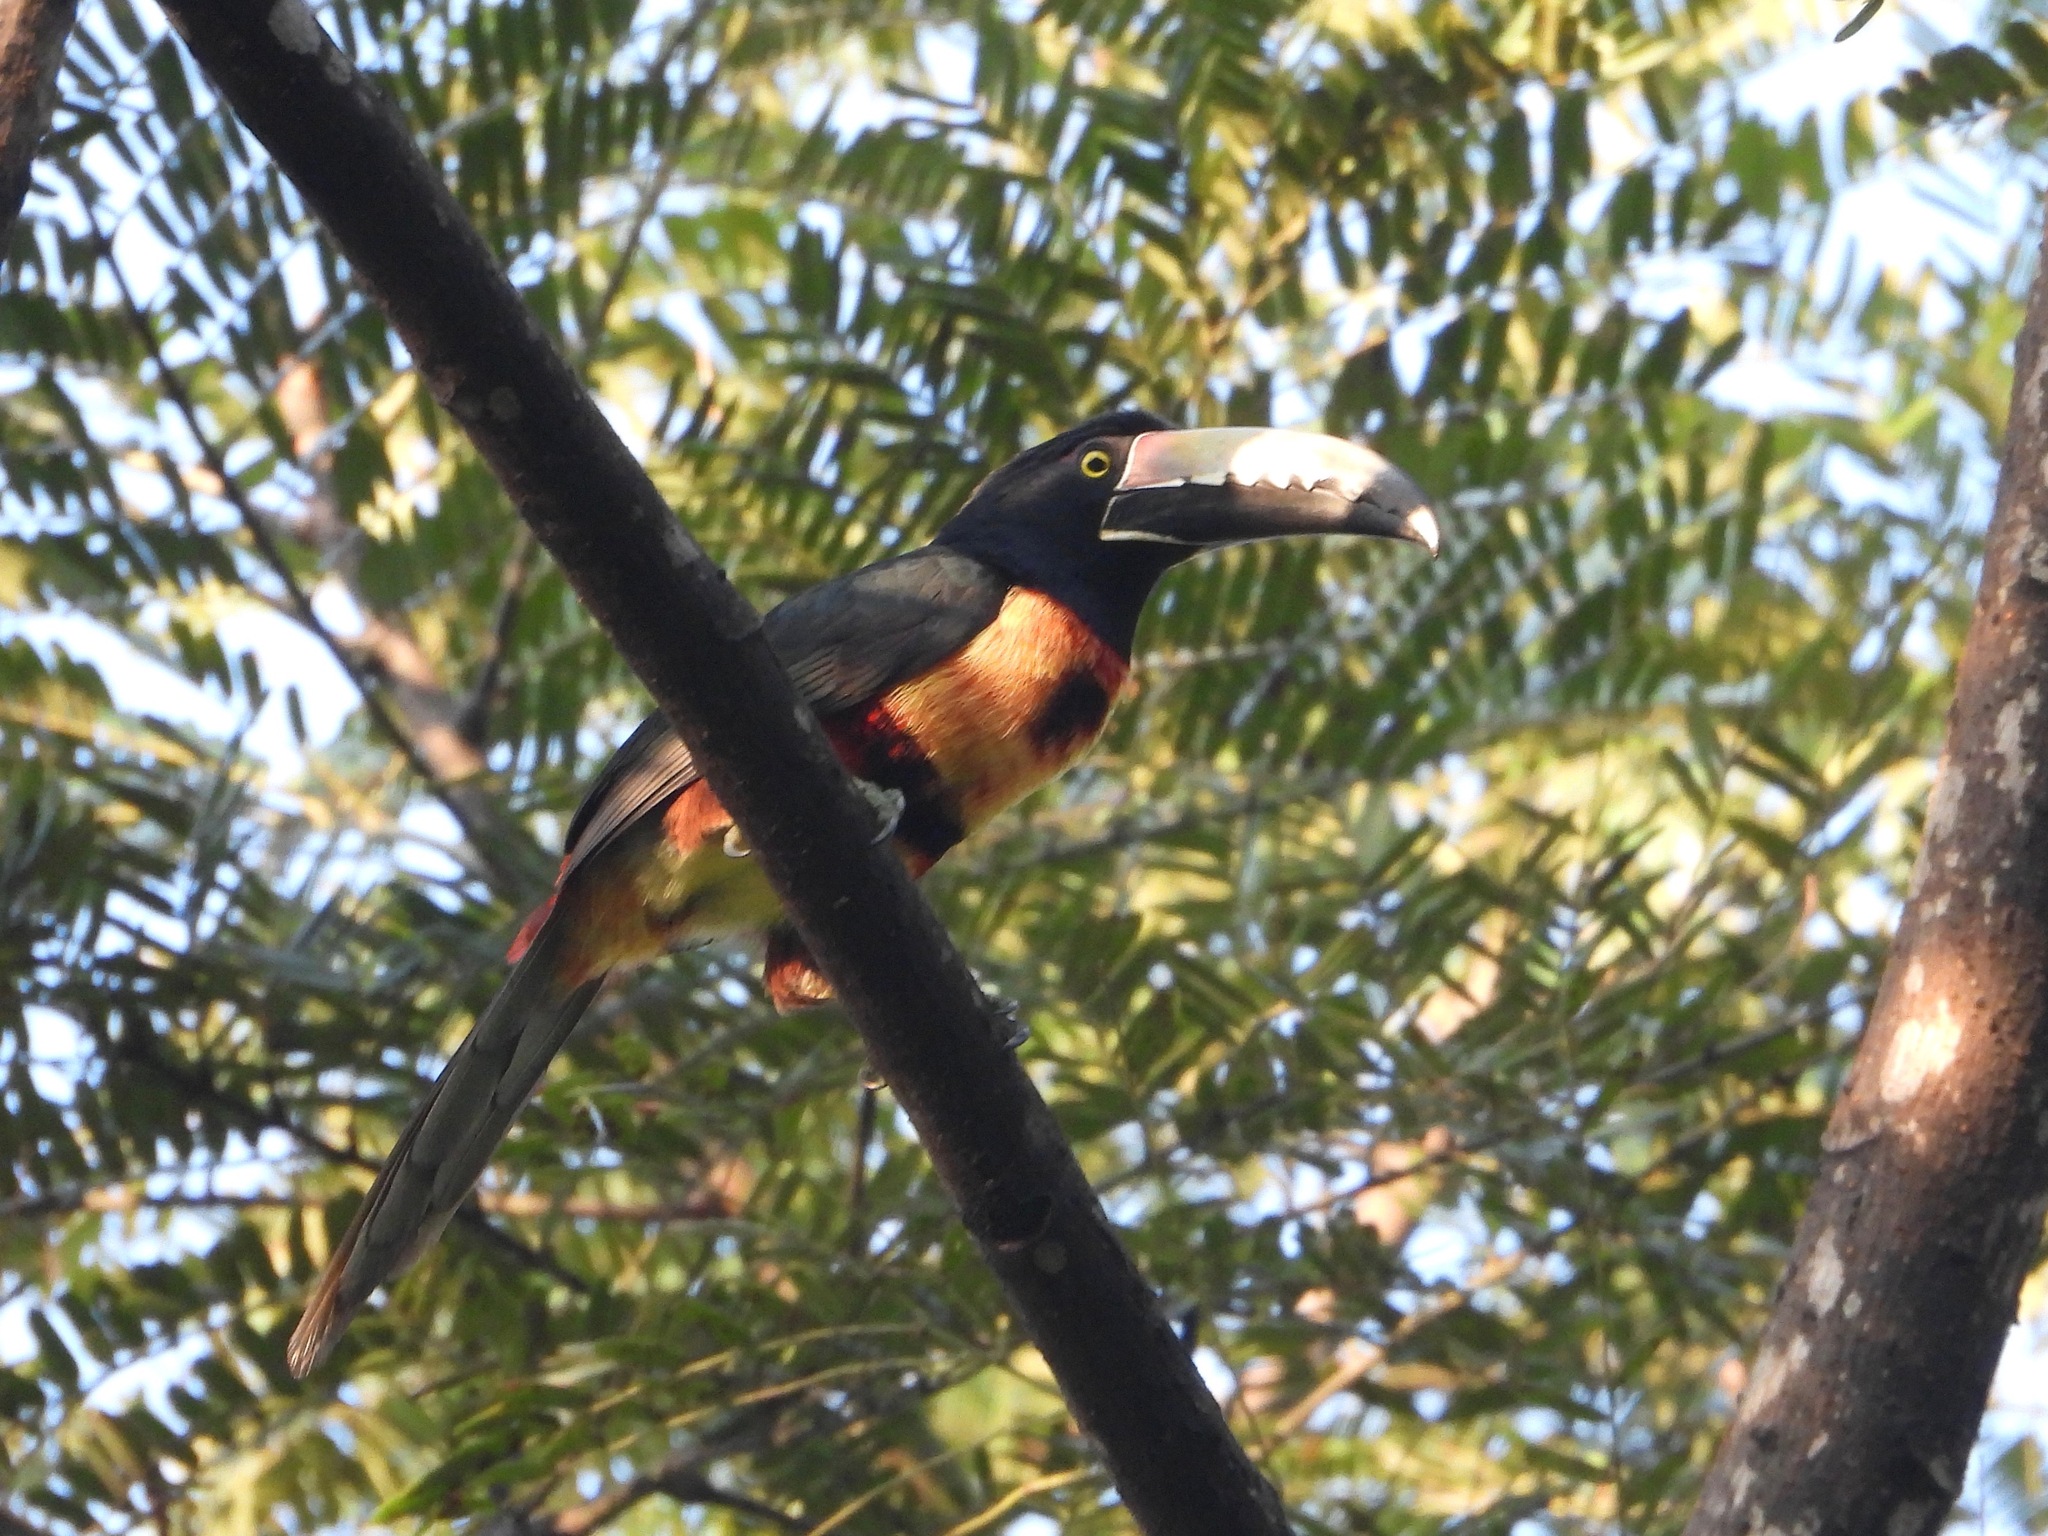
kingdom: Animalia
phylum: Chordata
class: Aves
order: Piciformes
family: Ramphastidae
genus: Pteroglossus
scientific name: Pteroglossus torquatus
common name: Collared aracari
